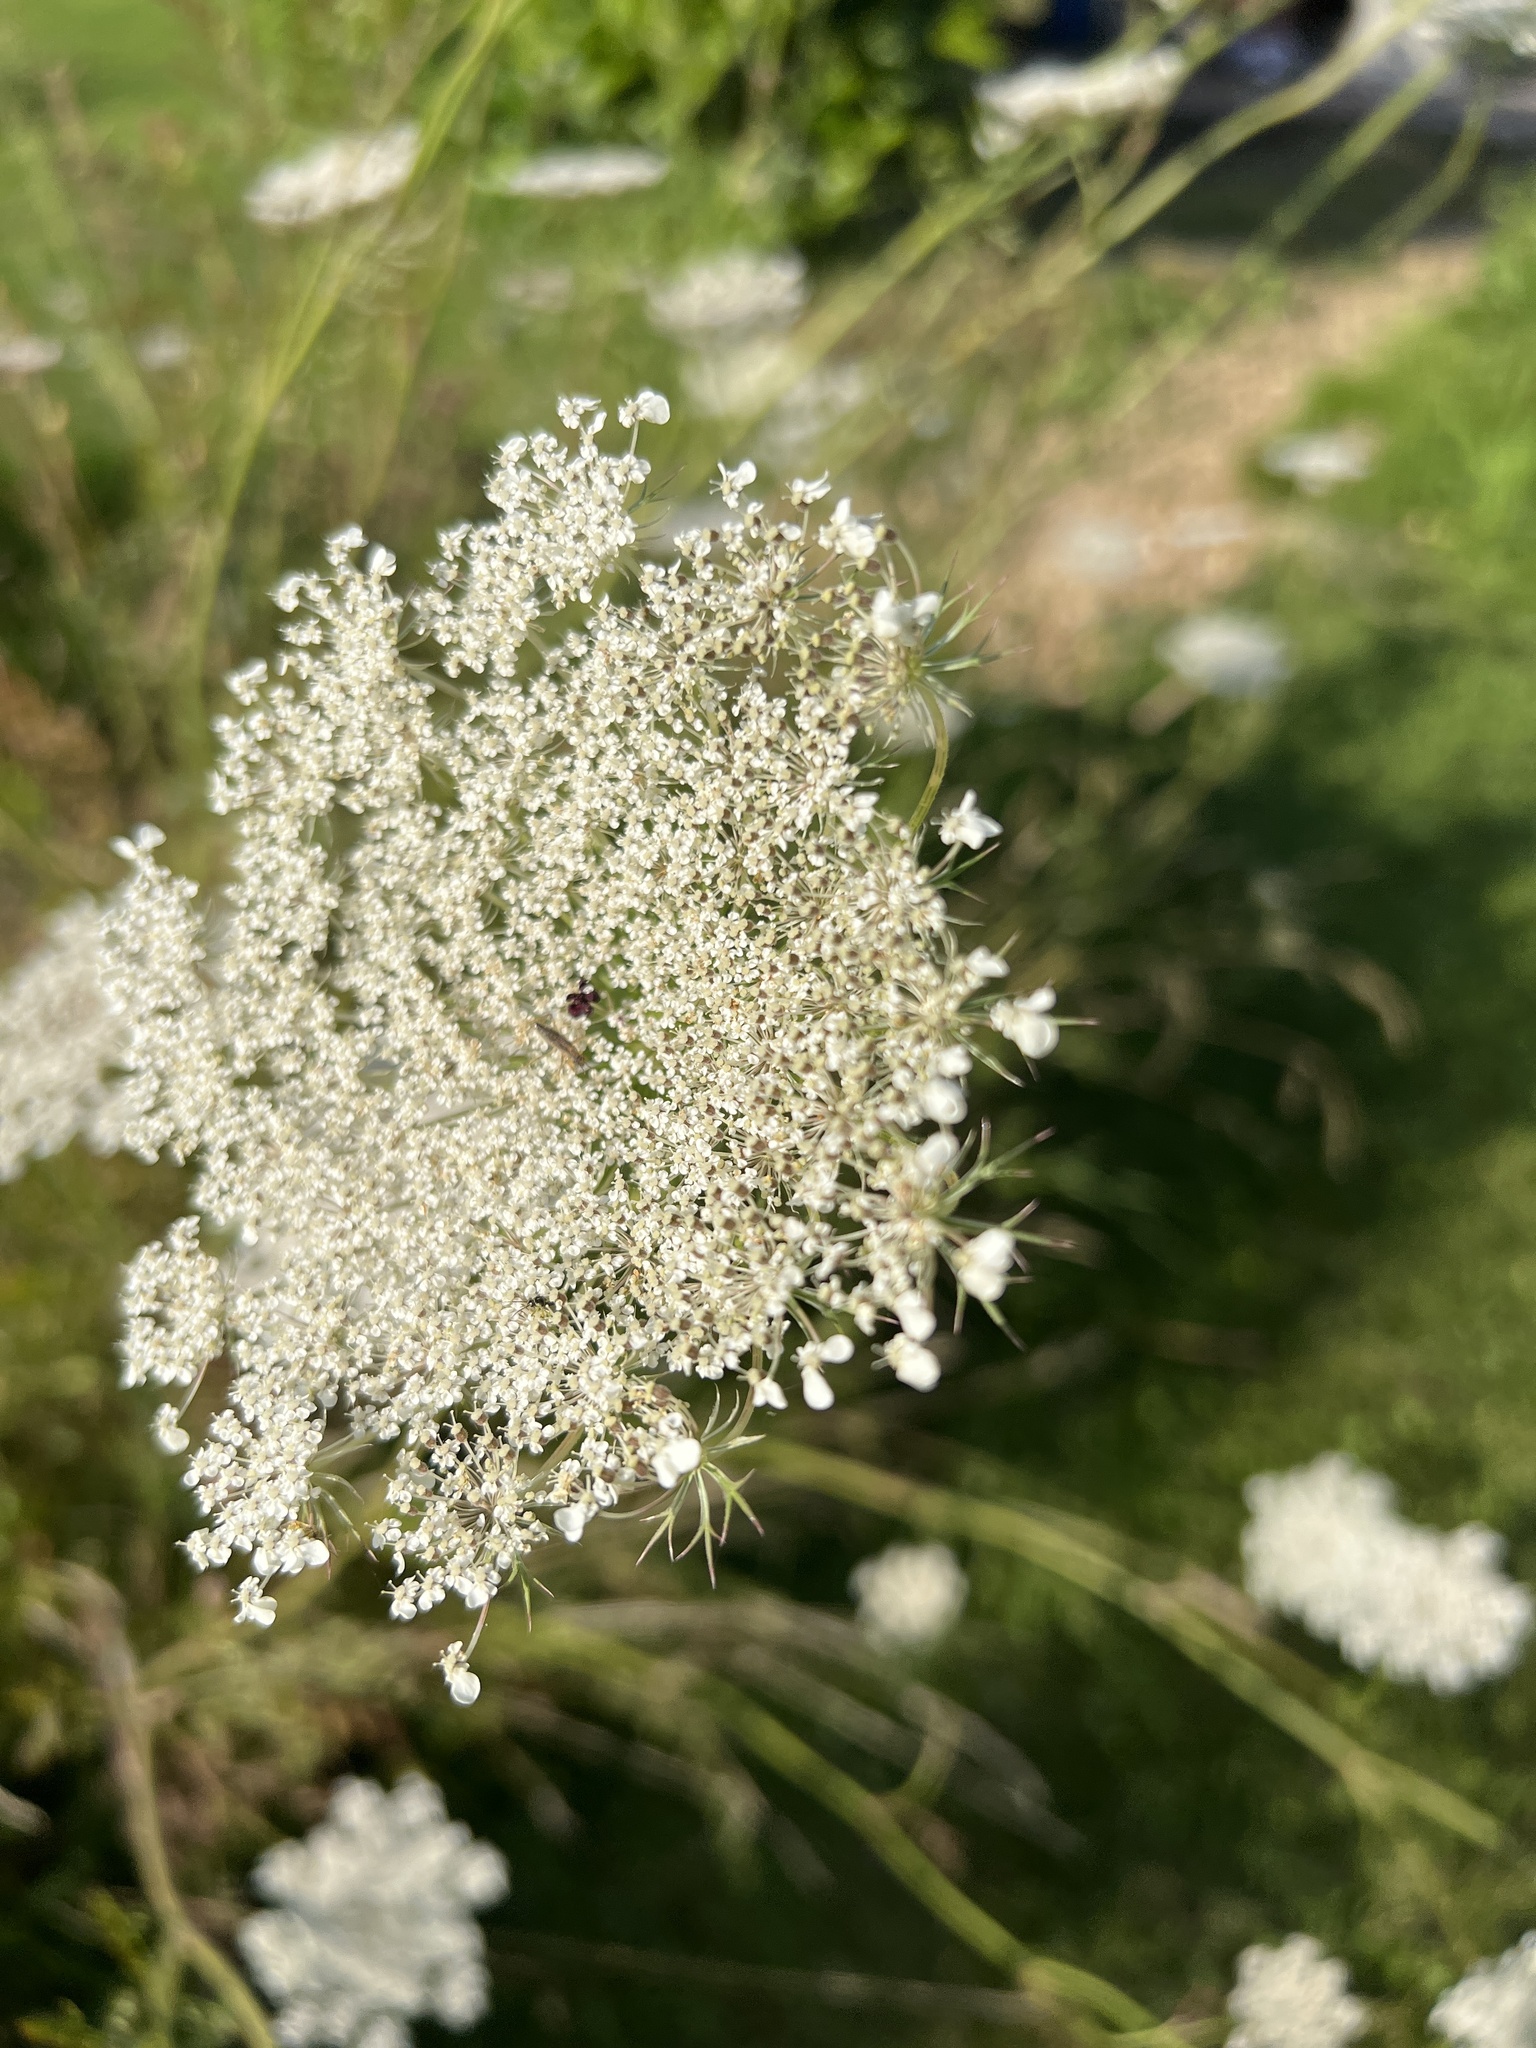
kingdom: Plantae
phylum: Tracheophyta
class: Magnoliopsida
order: Apiales
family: Apiaceae
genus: Daucus
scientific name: Daucus carota
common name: Wild carrot
